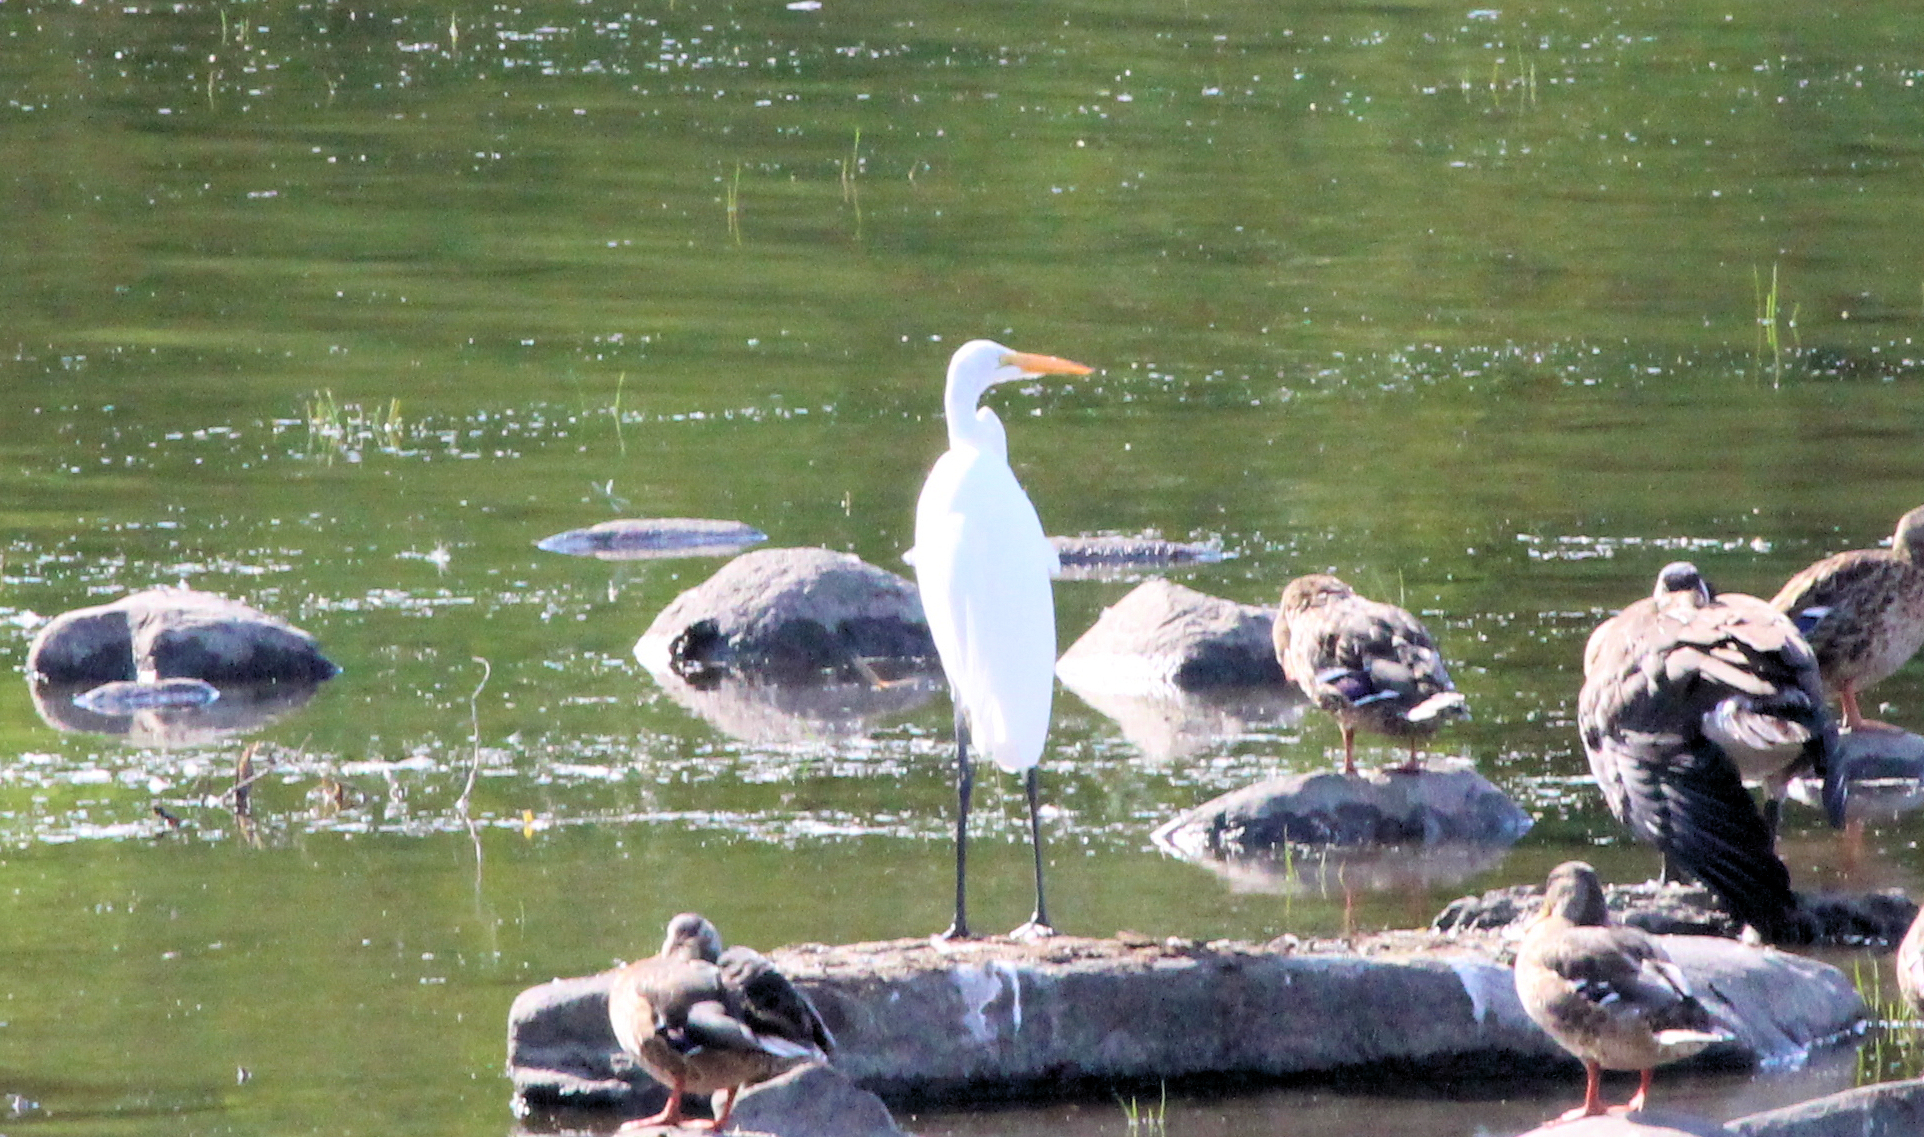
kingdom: Animalia
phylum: Chordata
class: Aves
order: Pelecaniformes
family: Ardeidae
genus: Ardea
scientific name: Ardea alba
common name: Great egret
